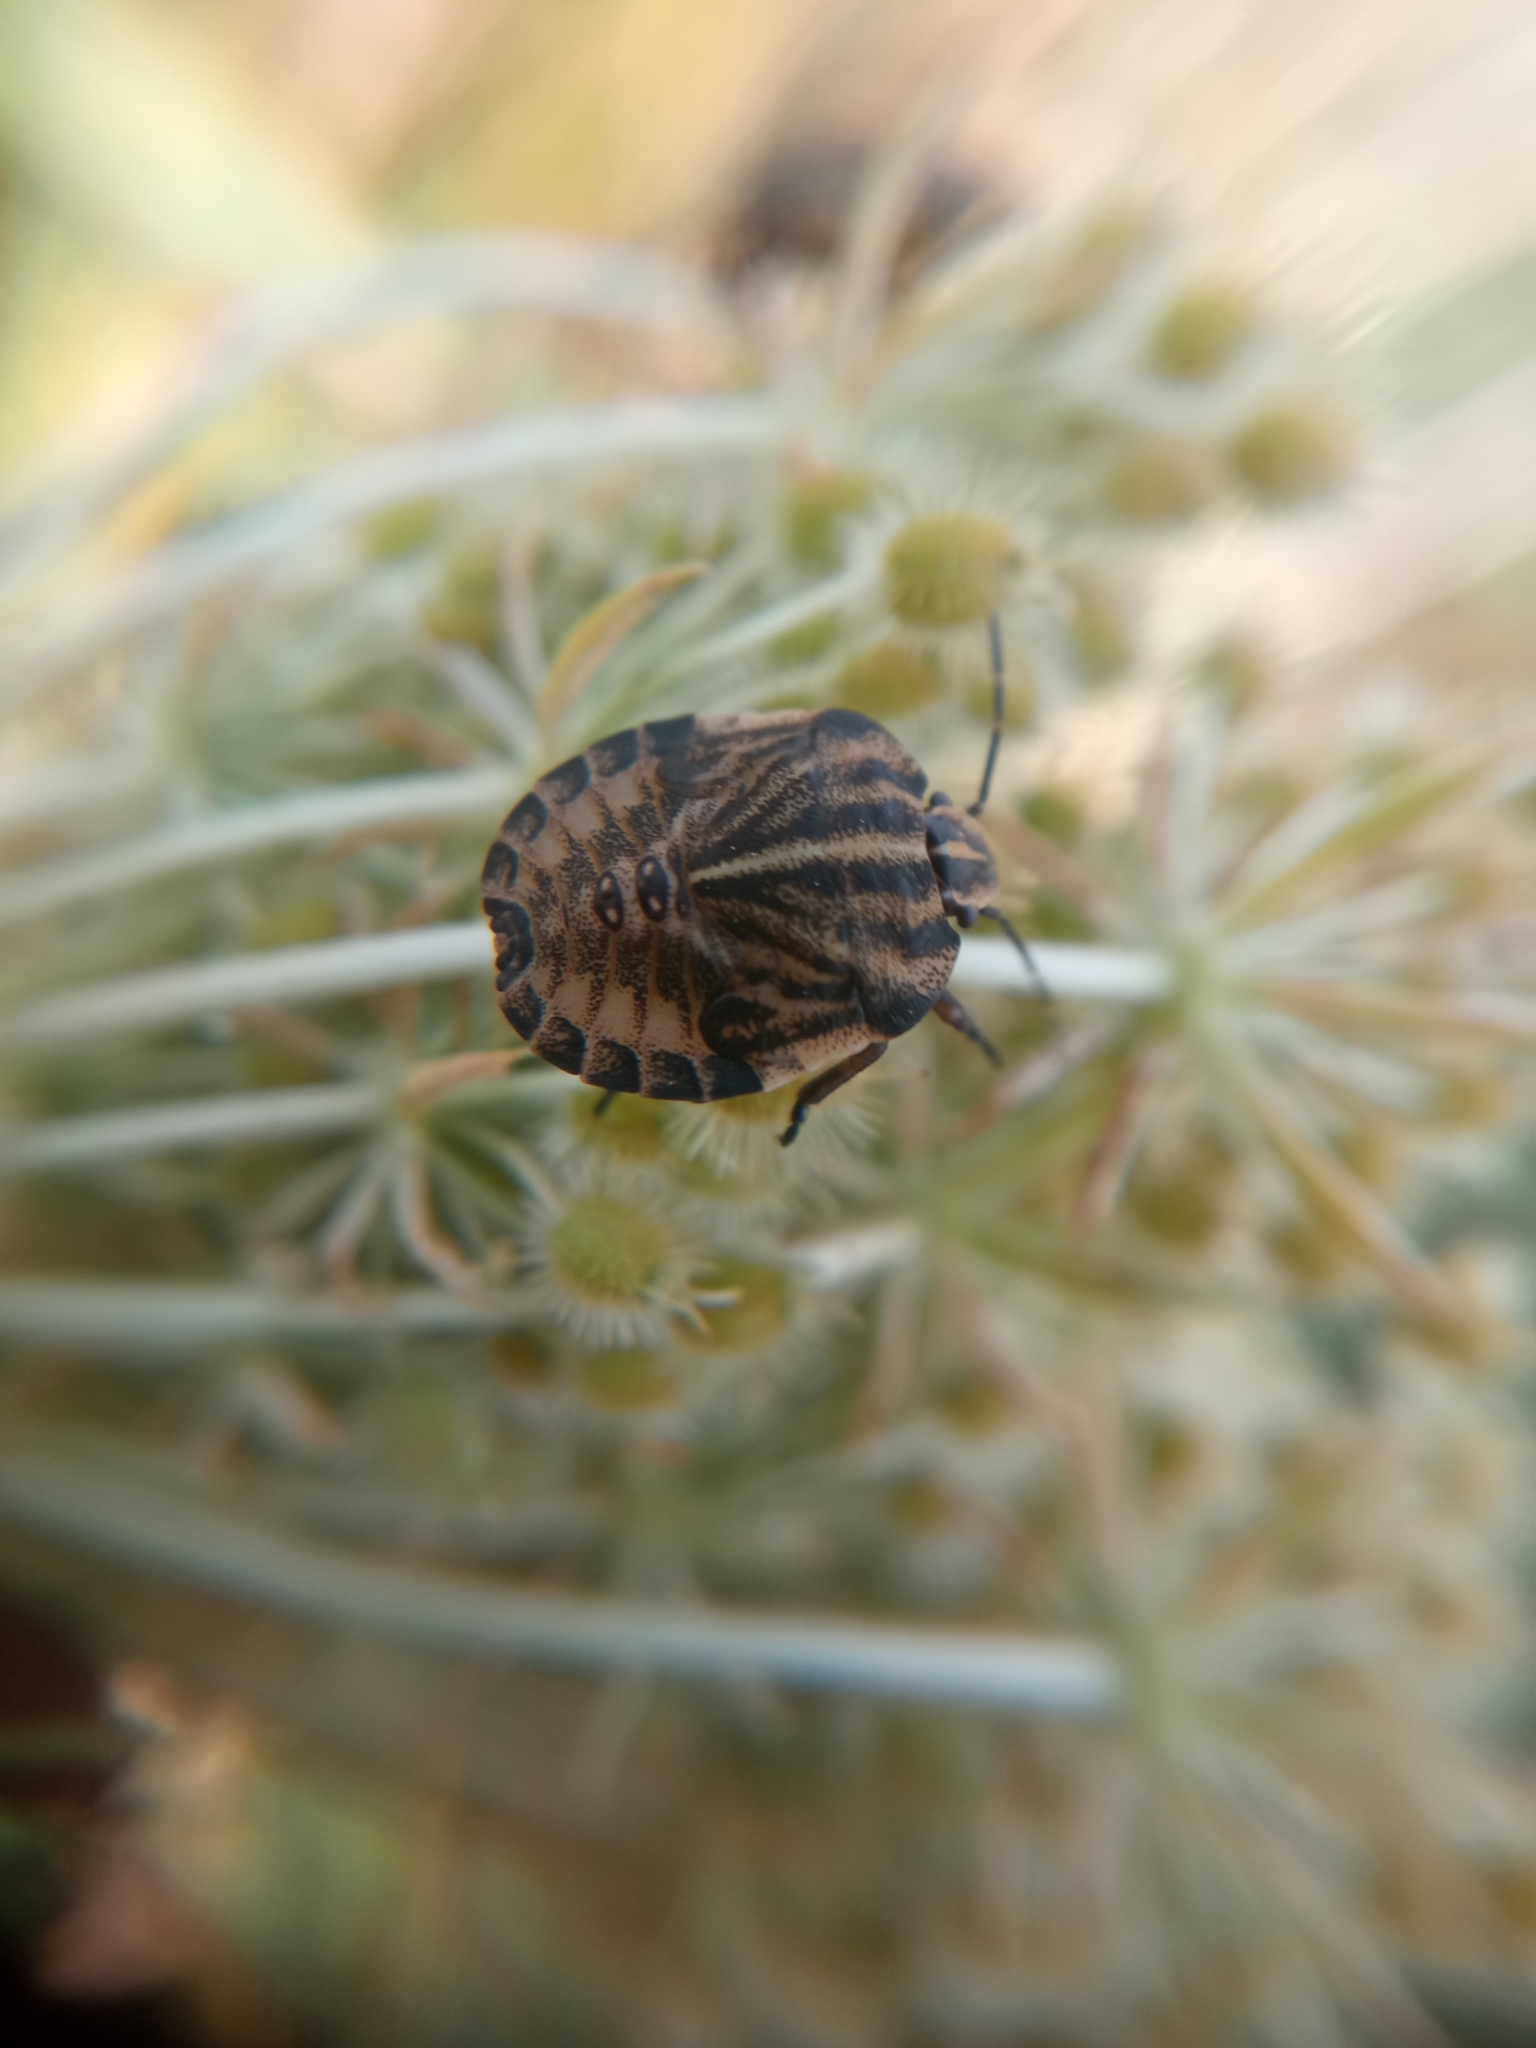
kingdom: Animalia
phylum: Arthropoda
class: Insecta
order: Hemiptera
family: Pentatomidae
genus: Graphosoma
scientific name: Graphosoma italicum
